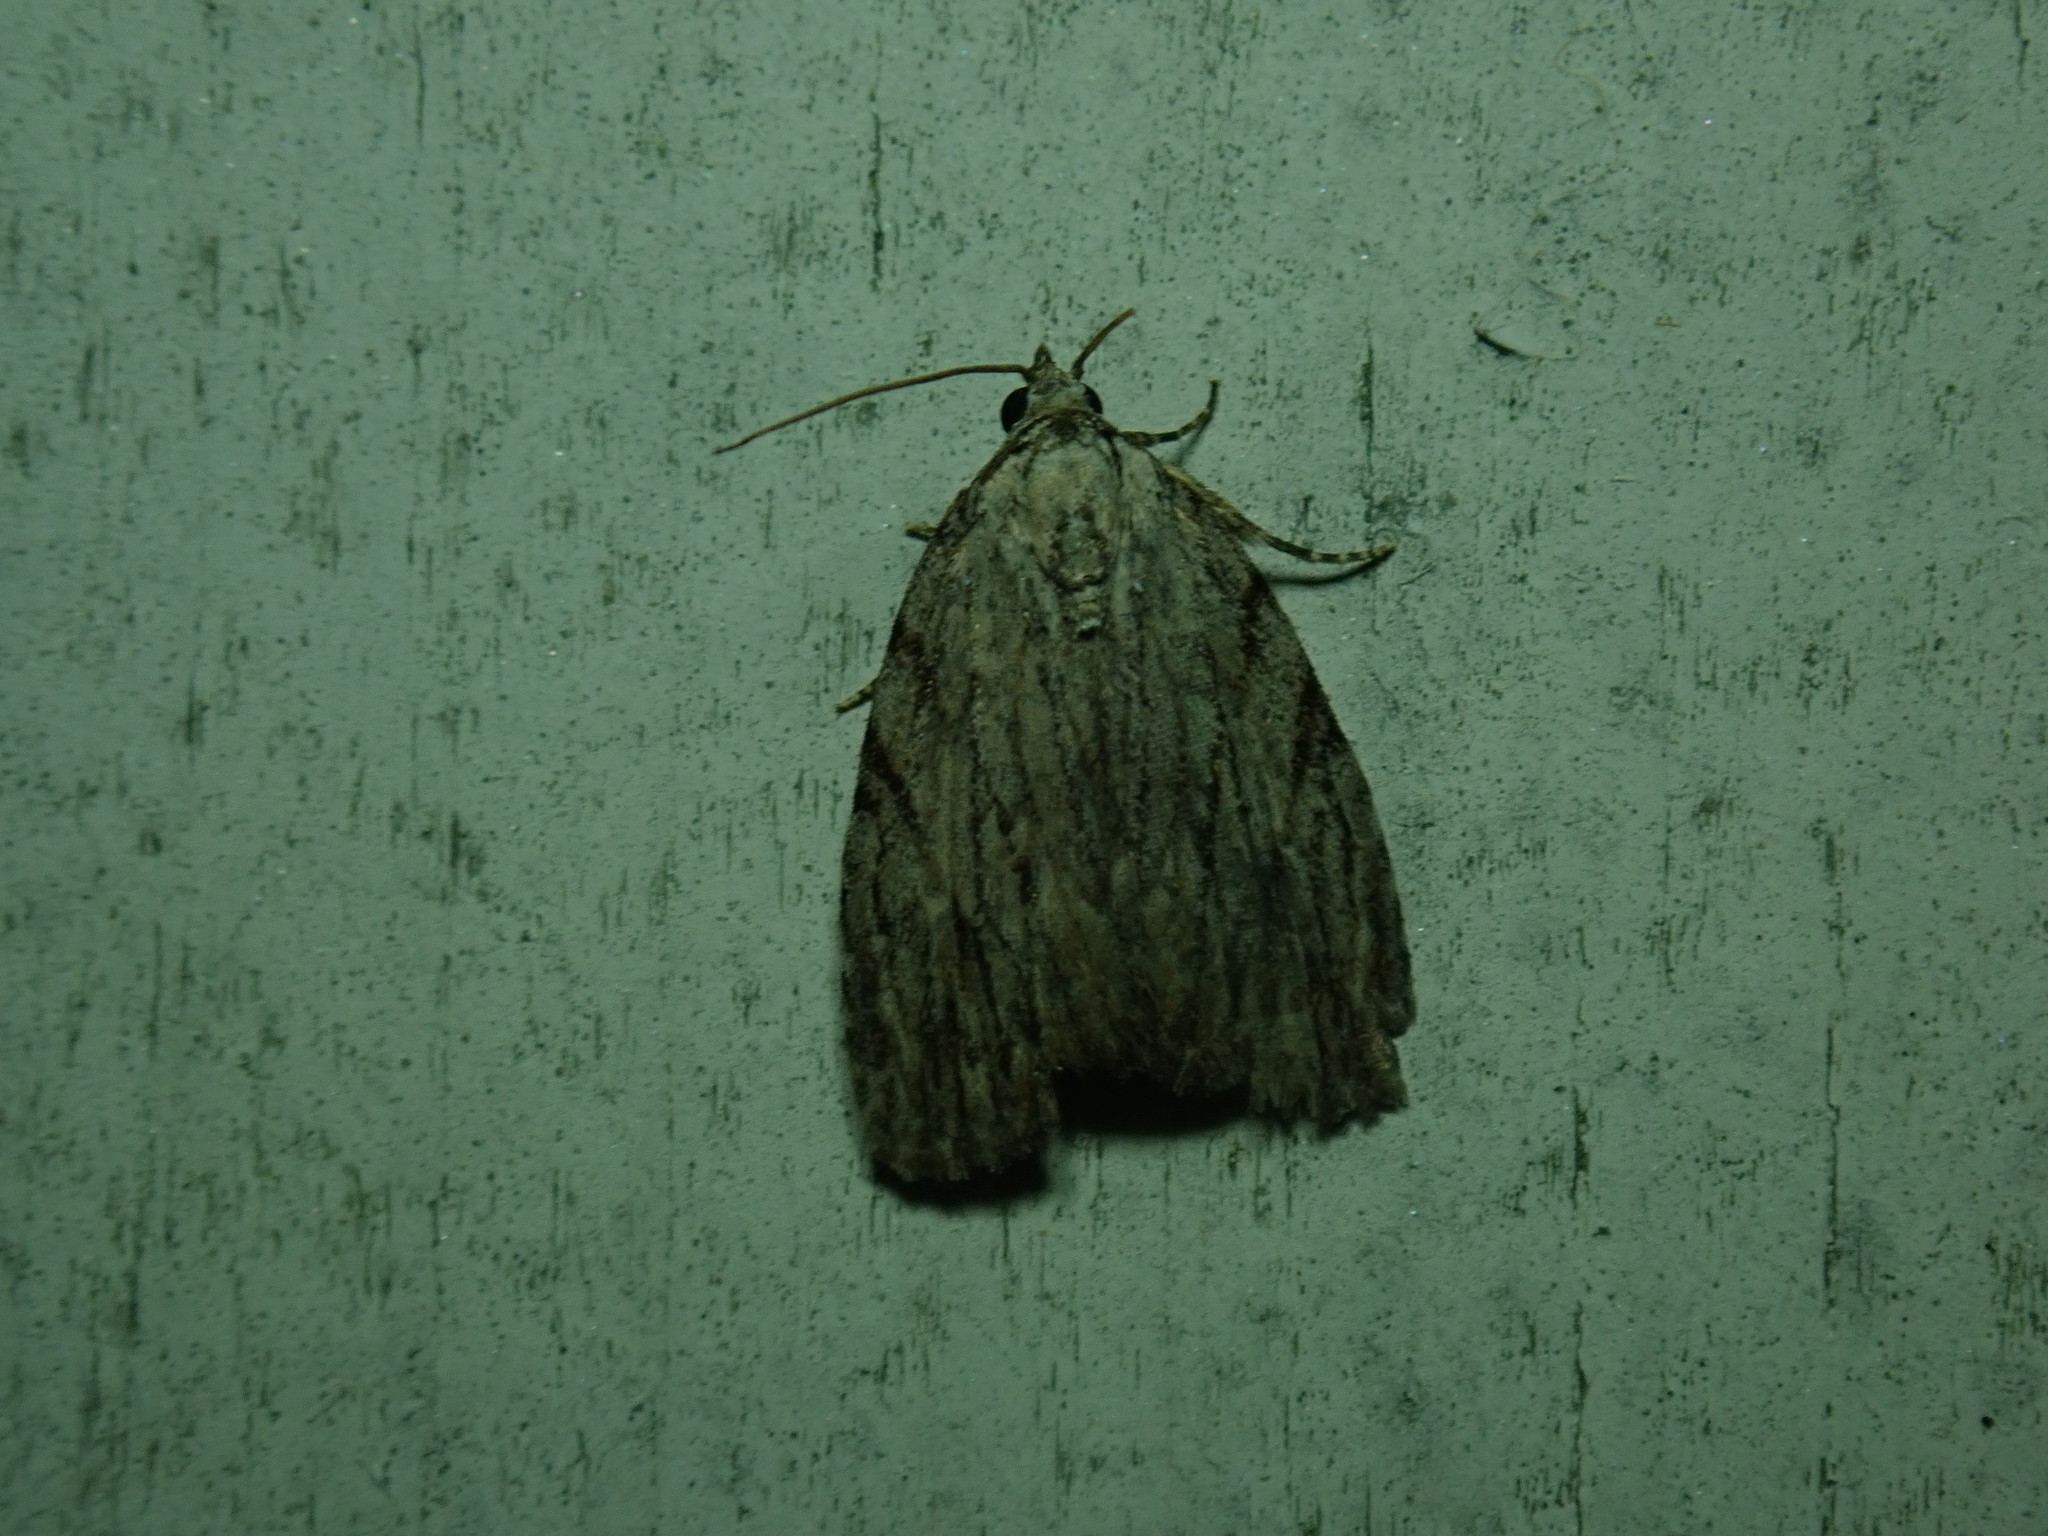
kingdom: Animalia
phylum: Arthropoda
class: Insecta
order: Lepidoptera
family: Noctuidae
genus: Balsa
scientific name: Balsa tristrigella
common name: Three-lined balsa moth
